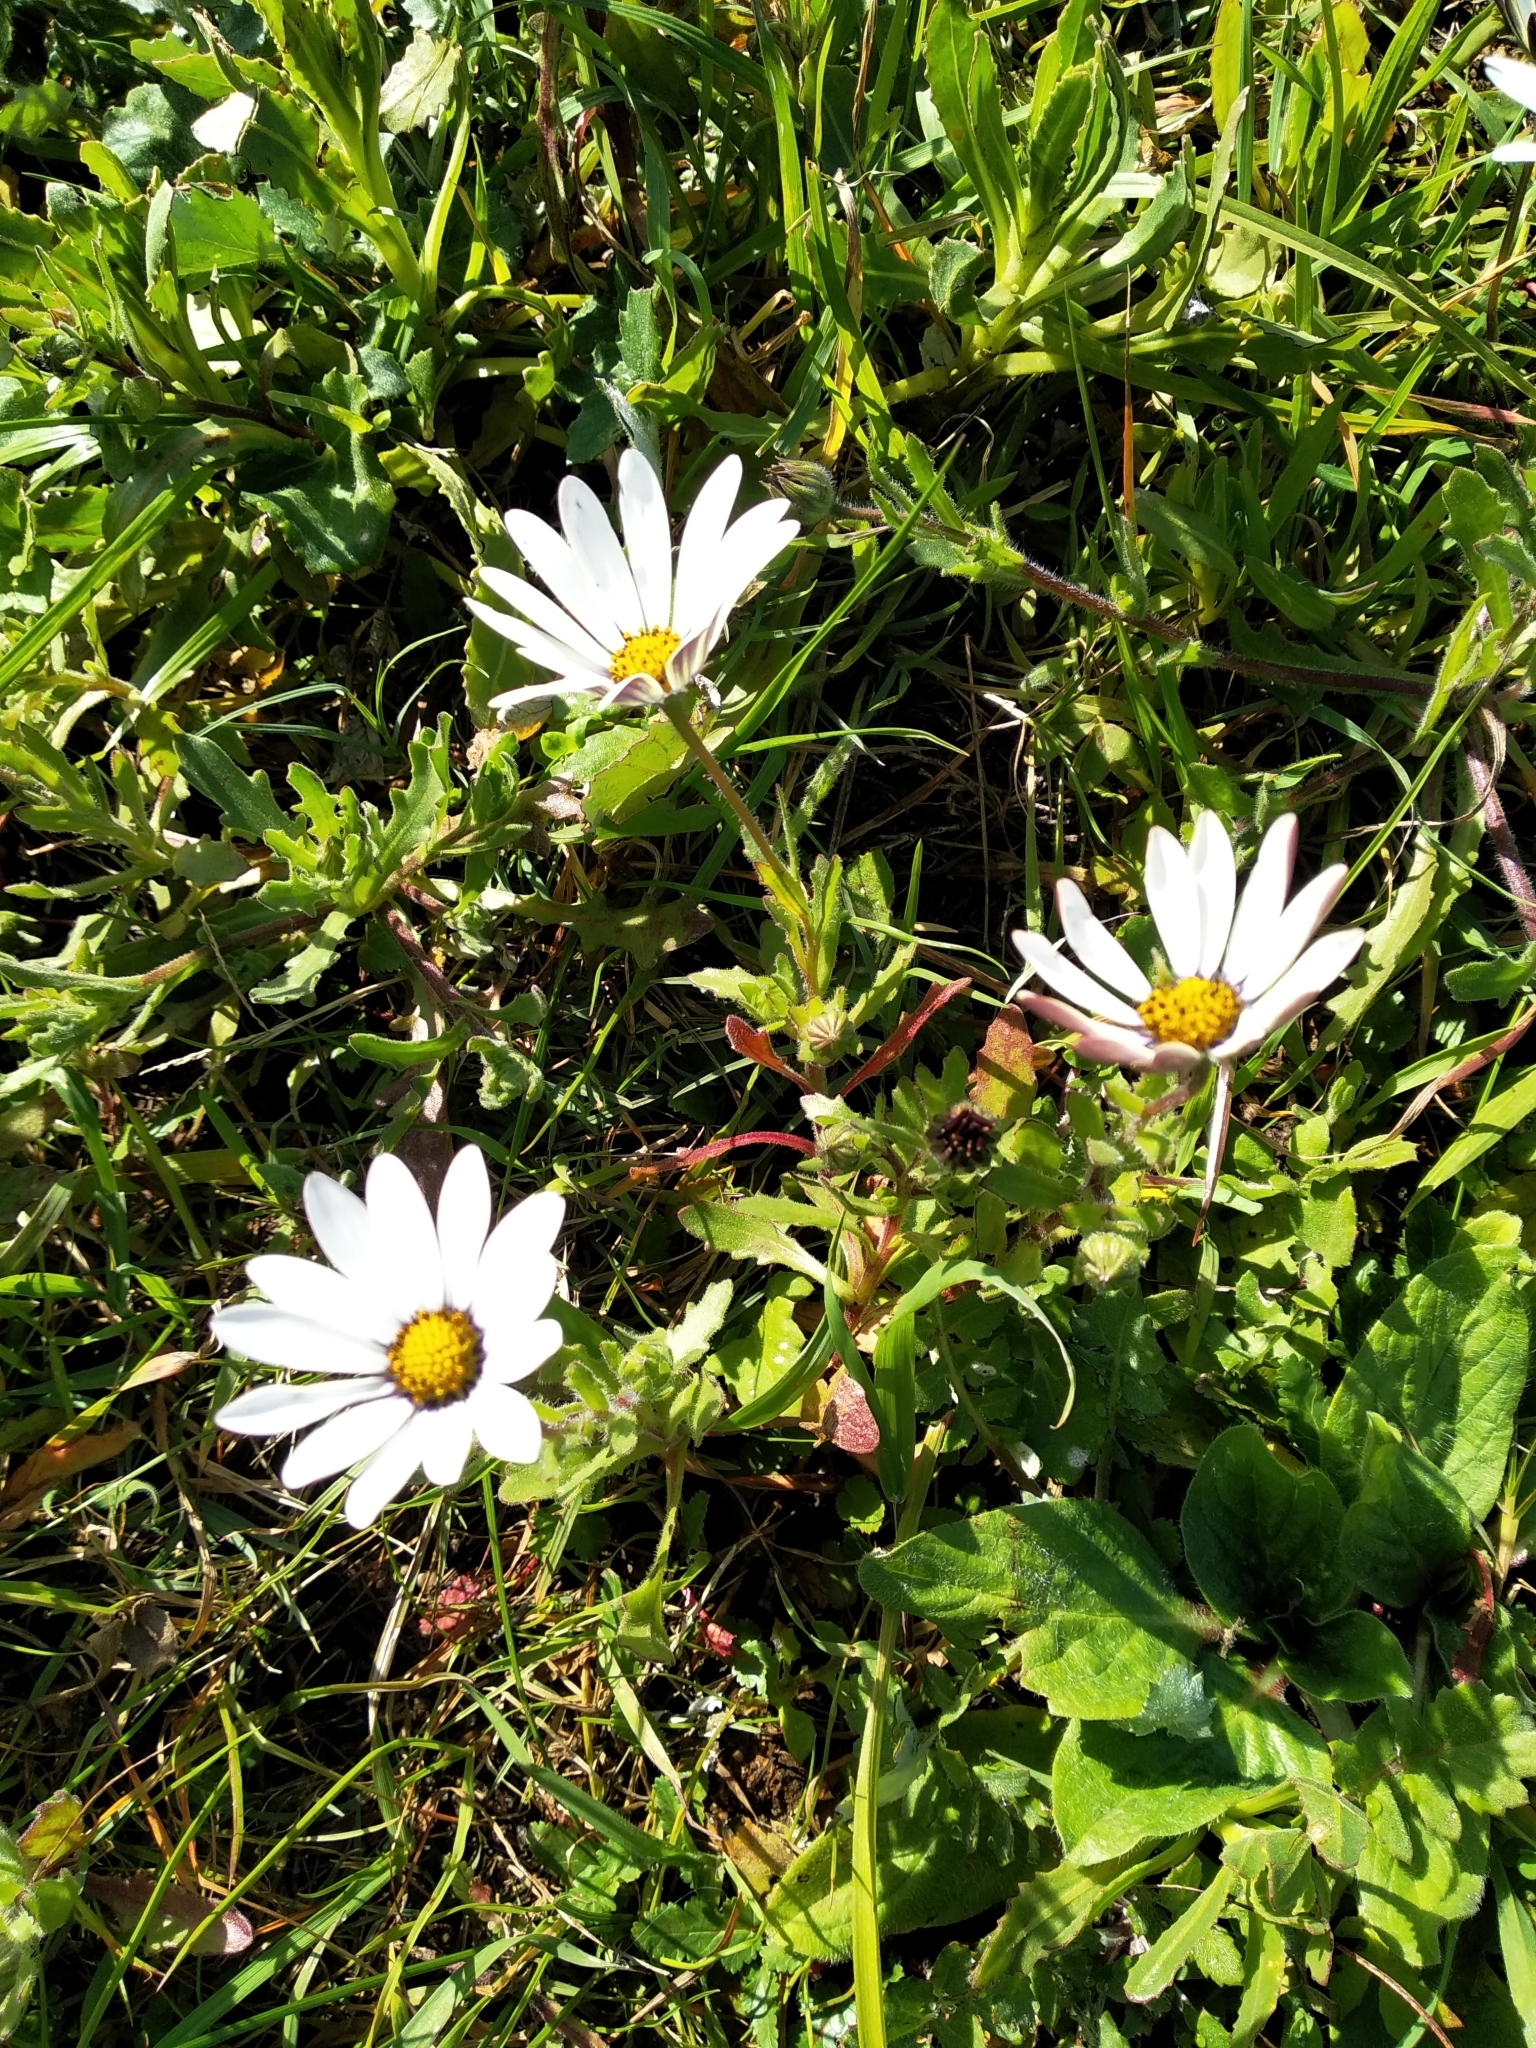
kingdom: Plantae
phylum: Tracheophyta
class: Magnoliopsida
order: Asterales
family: Asteraceae
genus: Dimorphotheca
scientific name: Dimorphotheca pluvialis
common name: Weather prophet
